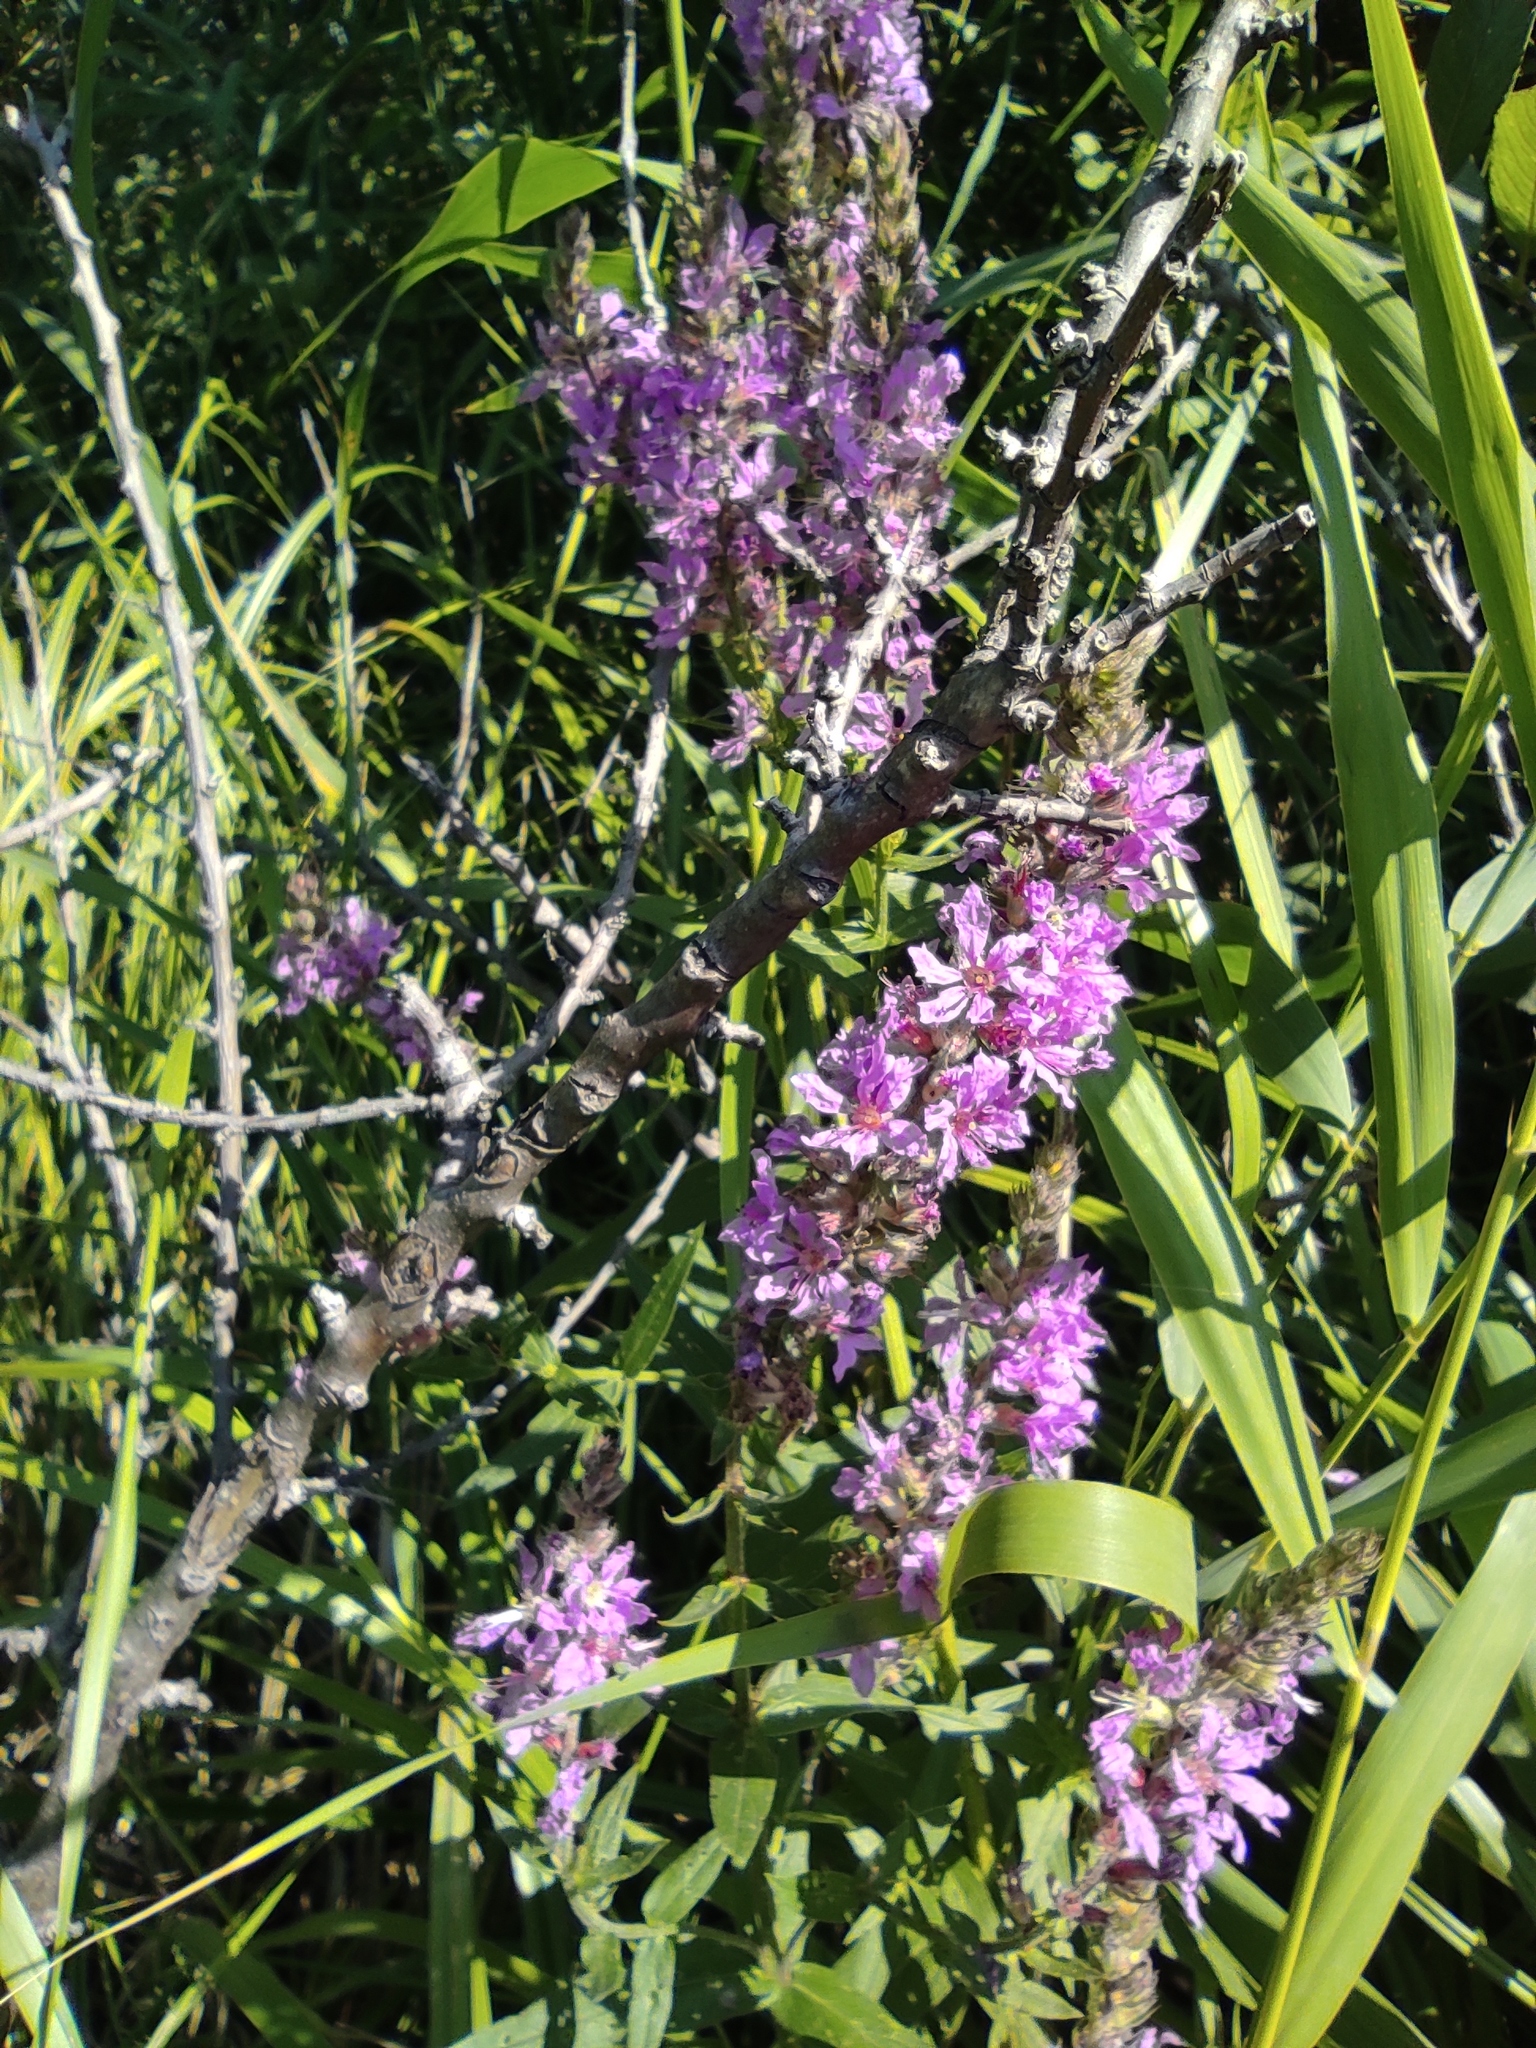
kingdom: Plantae
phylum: Tracheophyta
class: Magnoliopsida
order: Myrtales
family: Lythraceae
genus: Lythrum
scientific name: Lythrum salicaria
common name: Purple loosestrife
